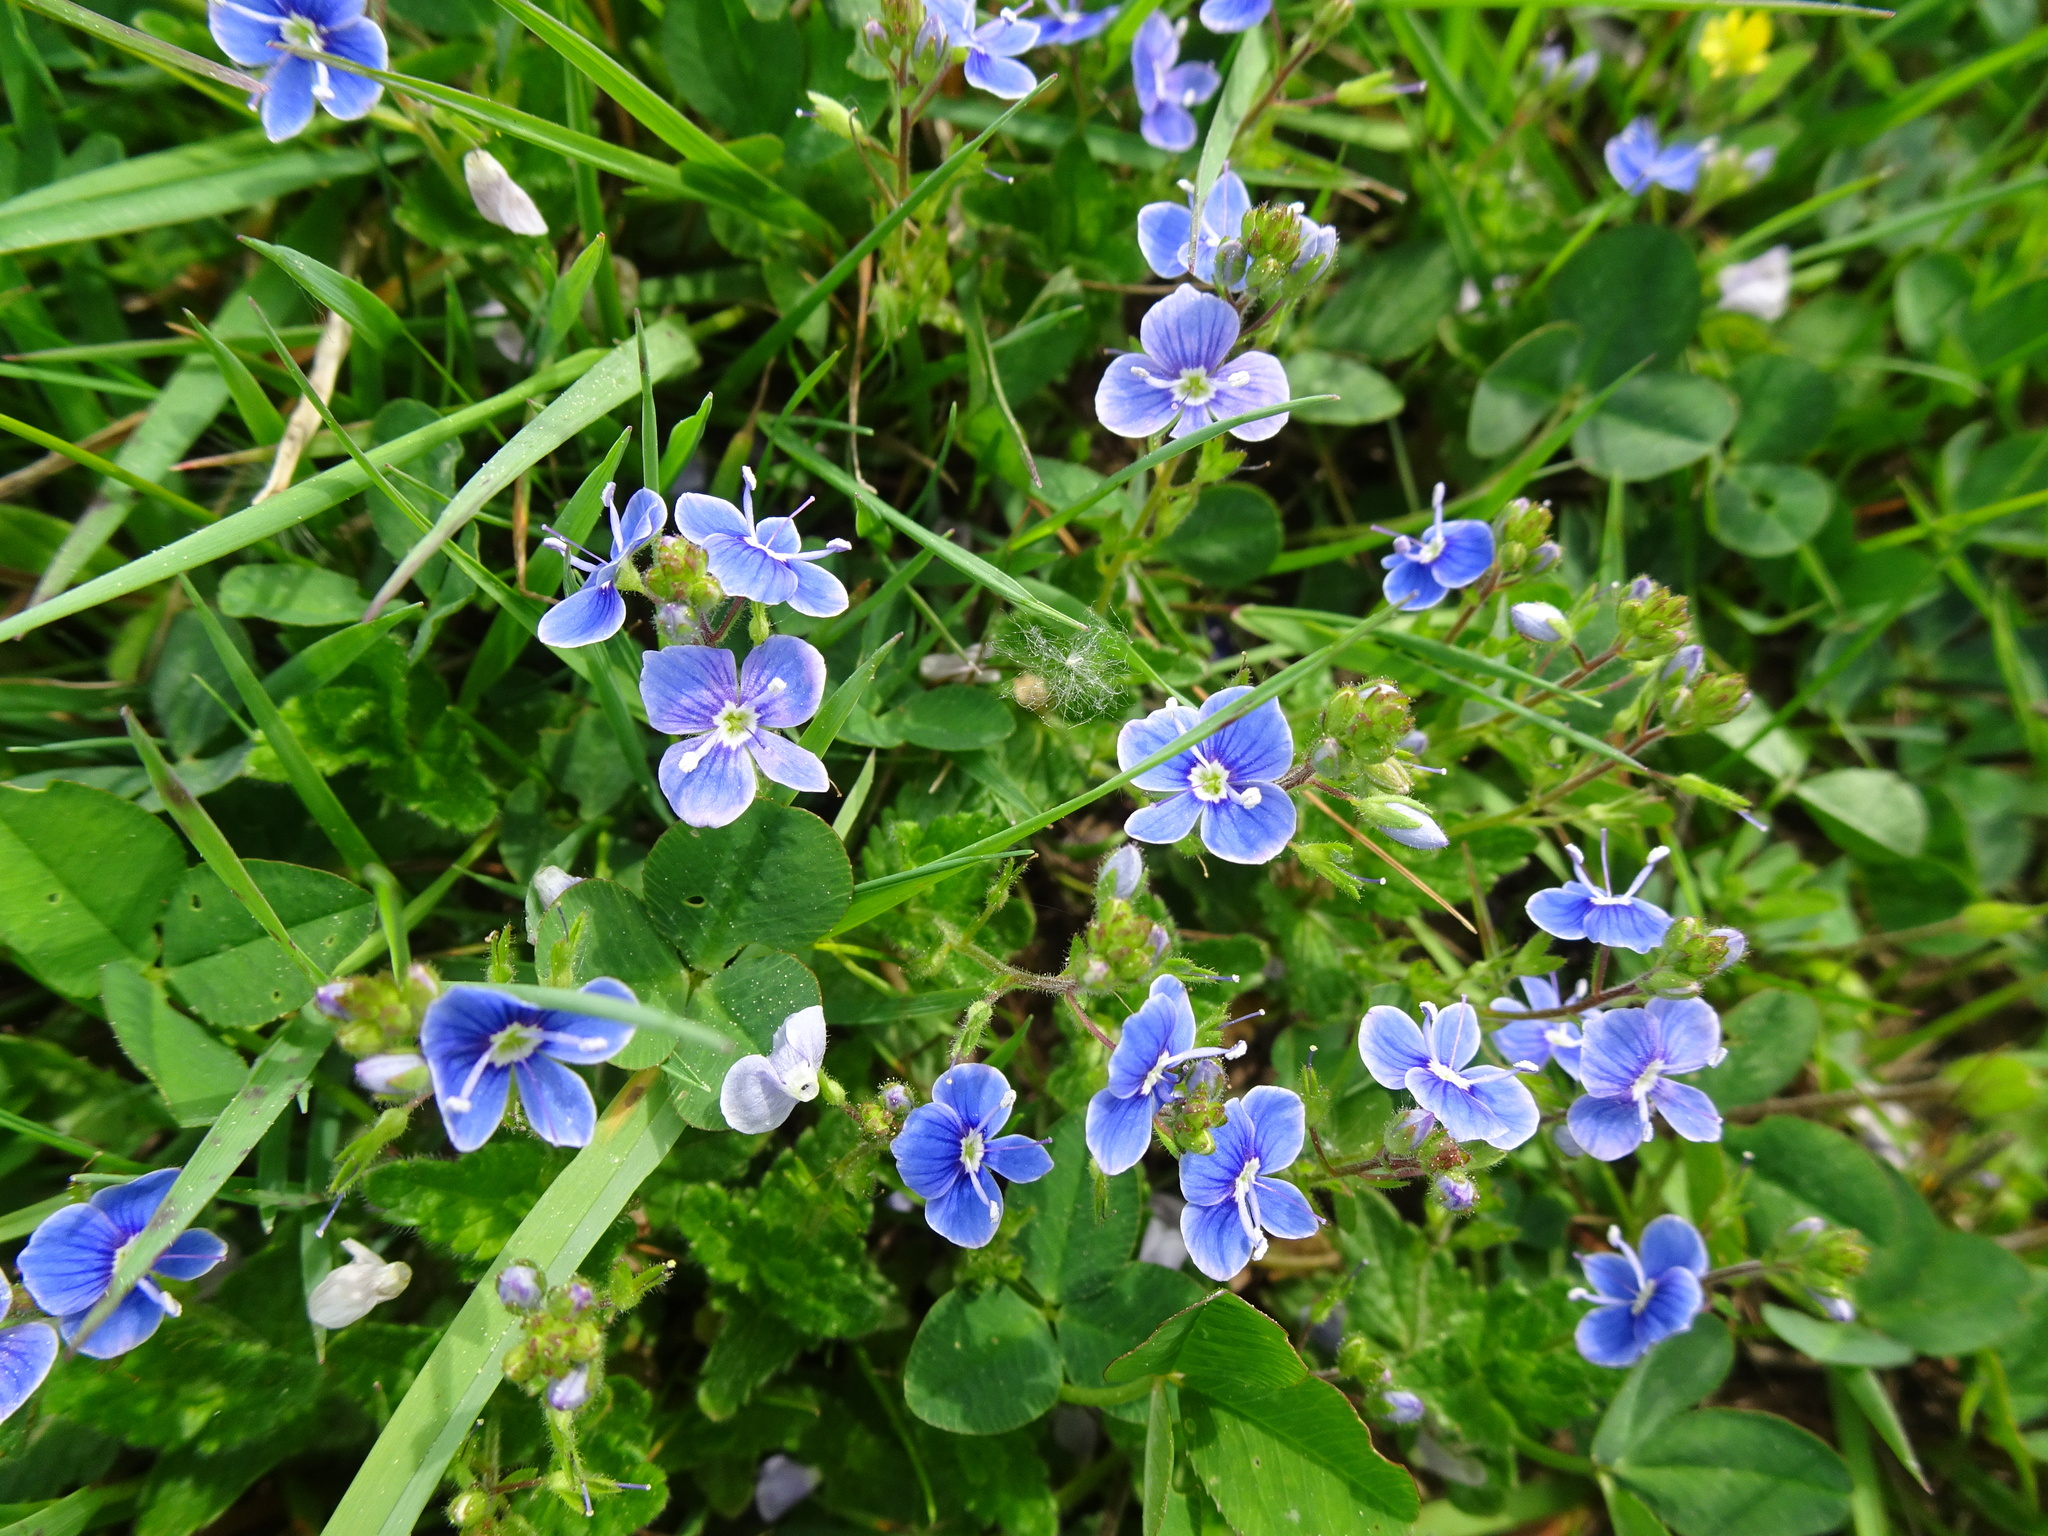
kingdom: Plantae
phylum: Tracheophyta
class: Magnoliopsida
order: Lamiales
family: Plantaginaceae
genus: Veronica
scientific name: Veronica chamaedrys
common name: Germander speedwell
